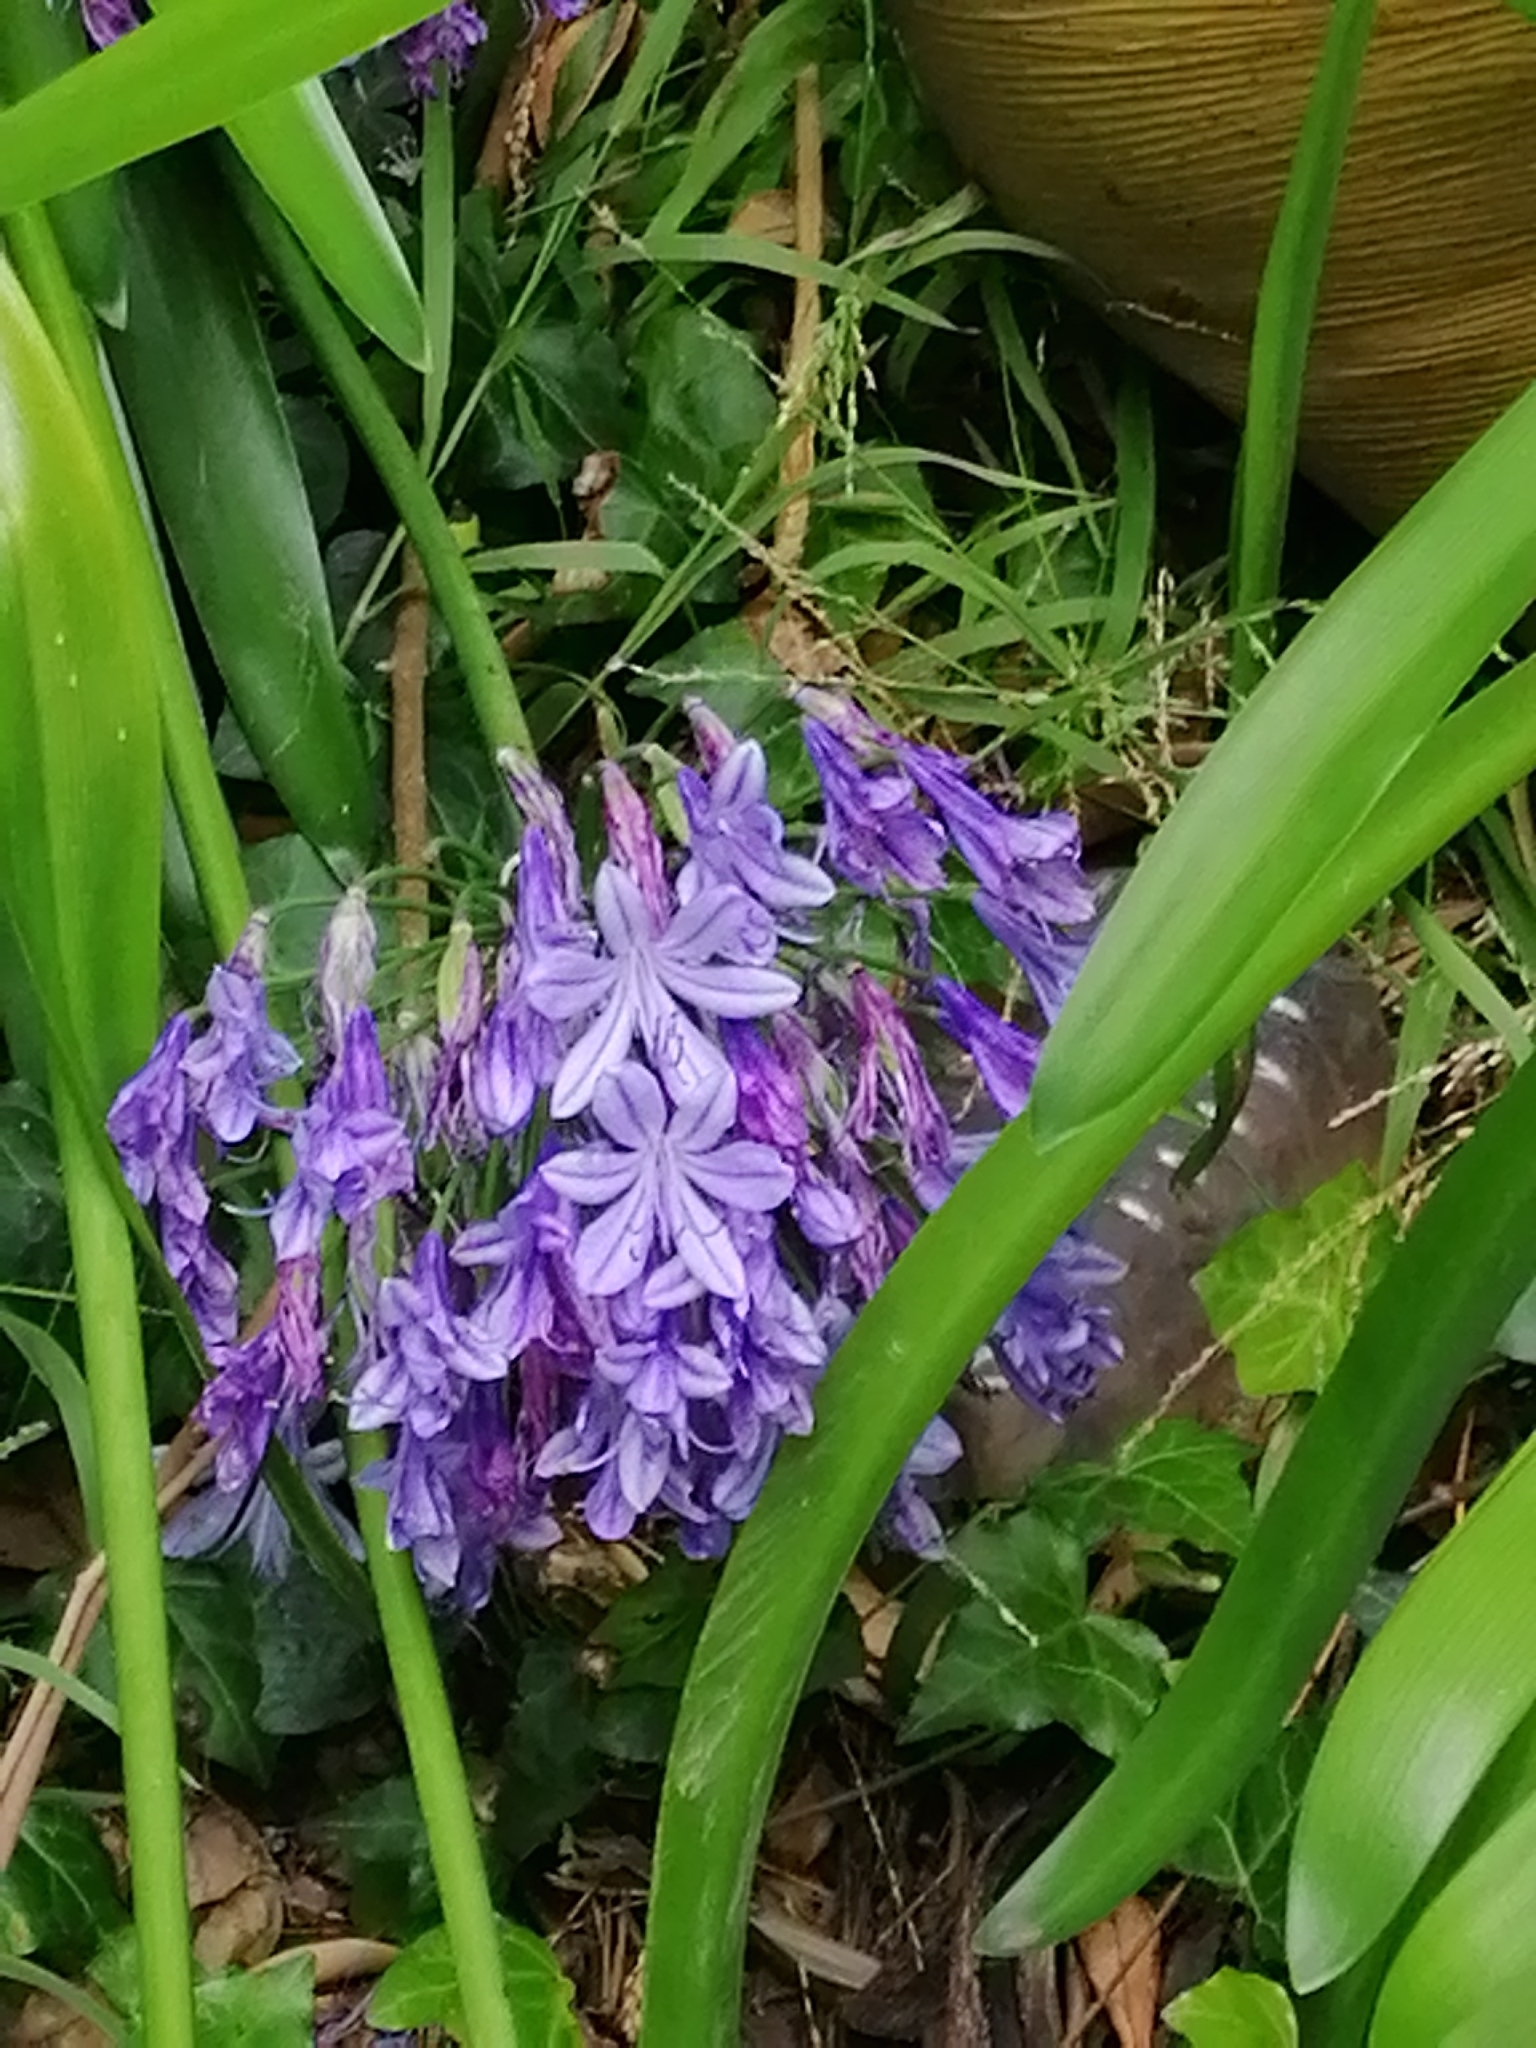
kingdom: Plantae
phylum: Tracheophyta
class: Liliopsida
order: Asparagales
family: Amaryllidaceae
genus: Agapanthus
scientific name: Agapanthus praecox
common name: African-lily
